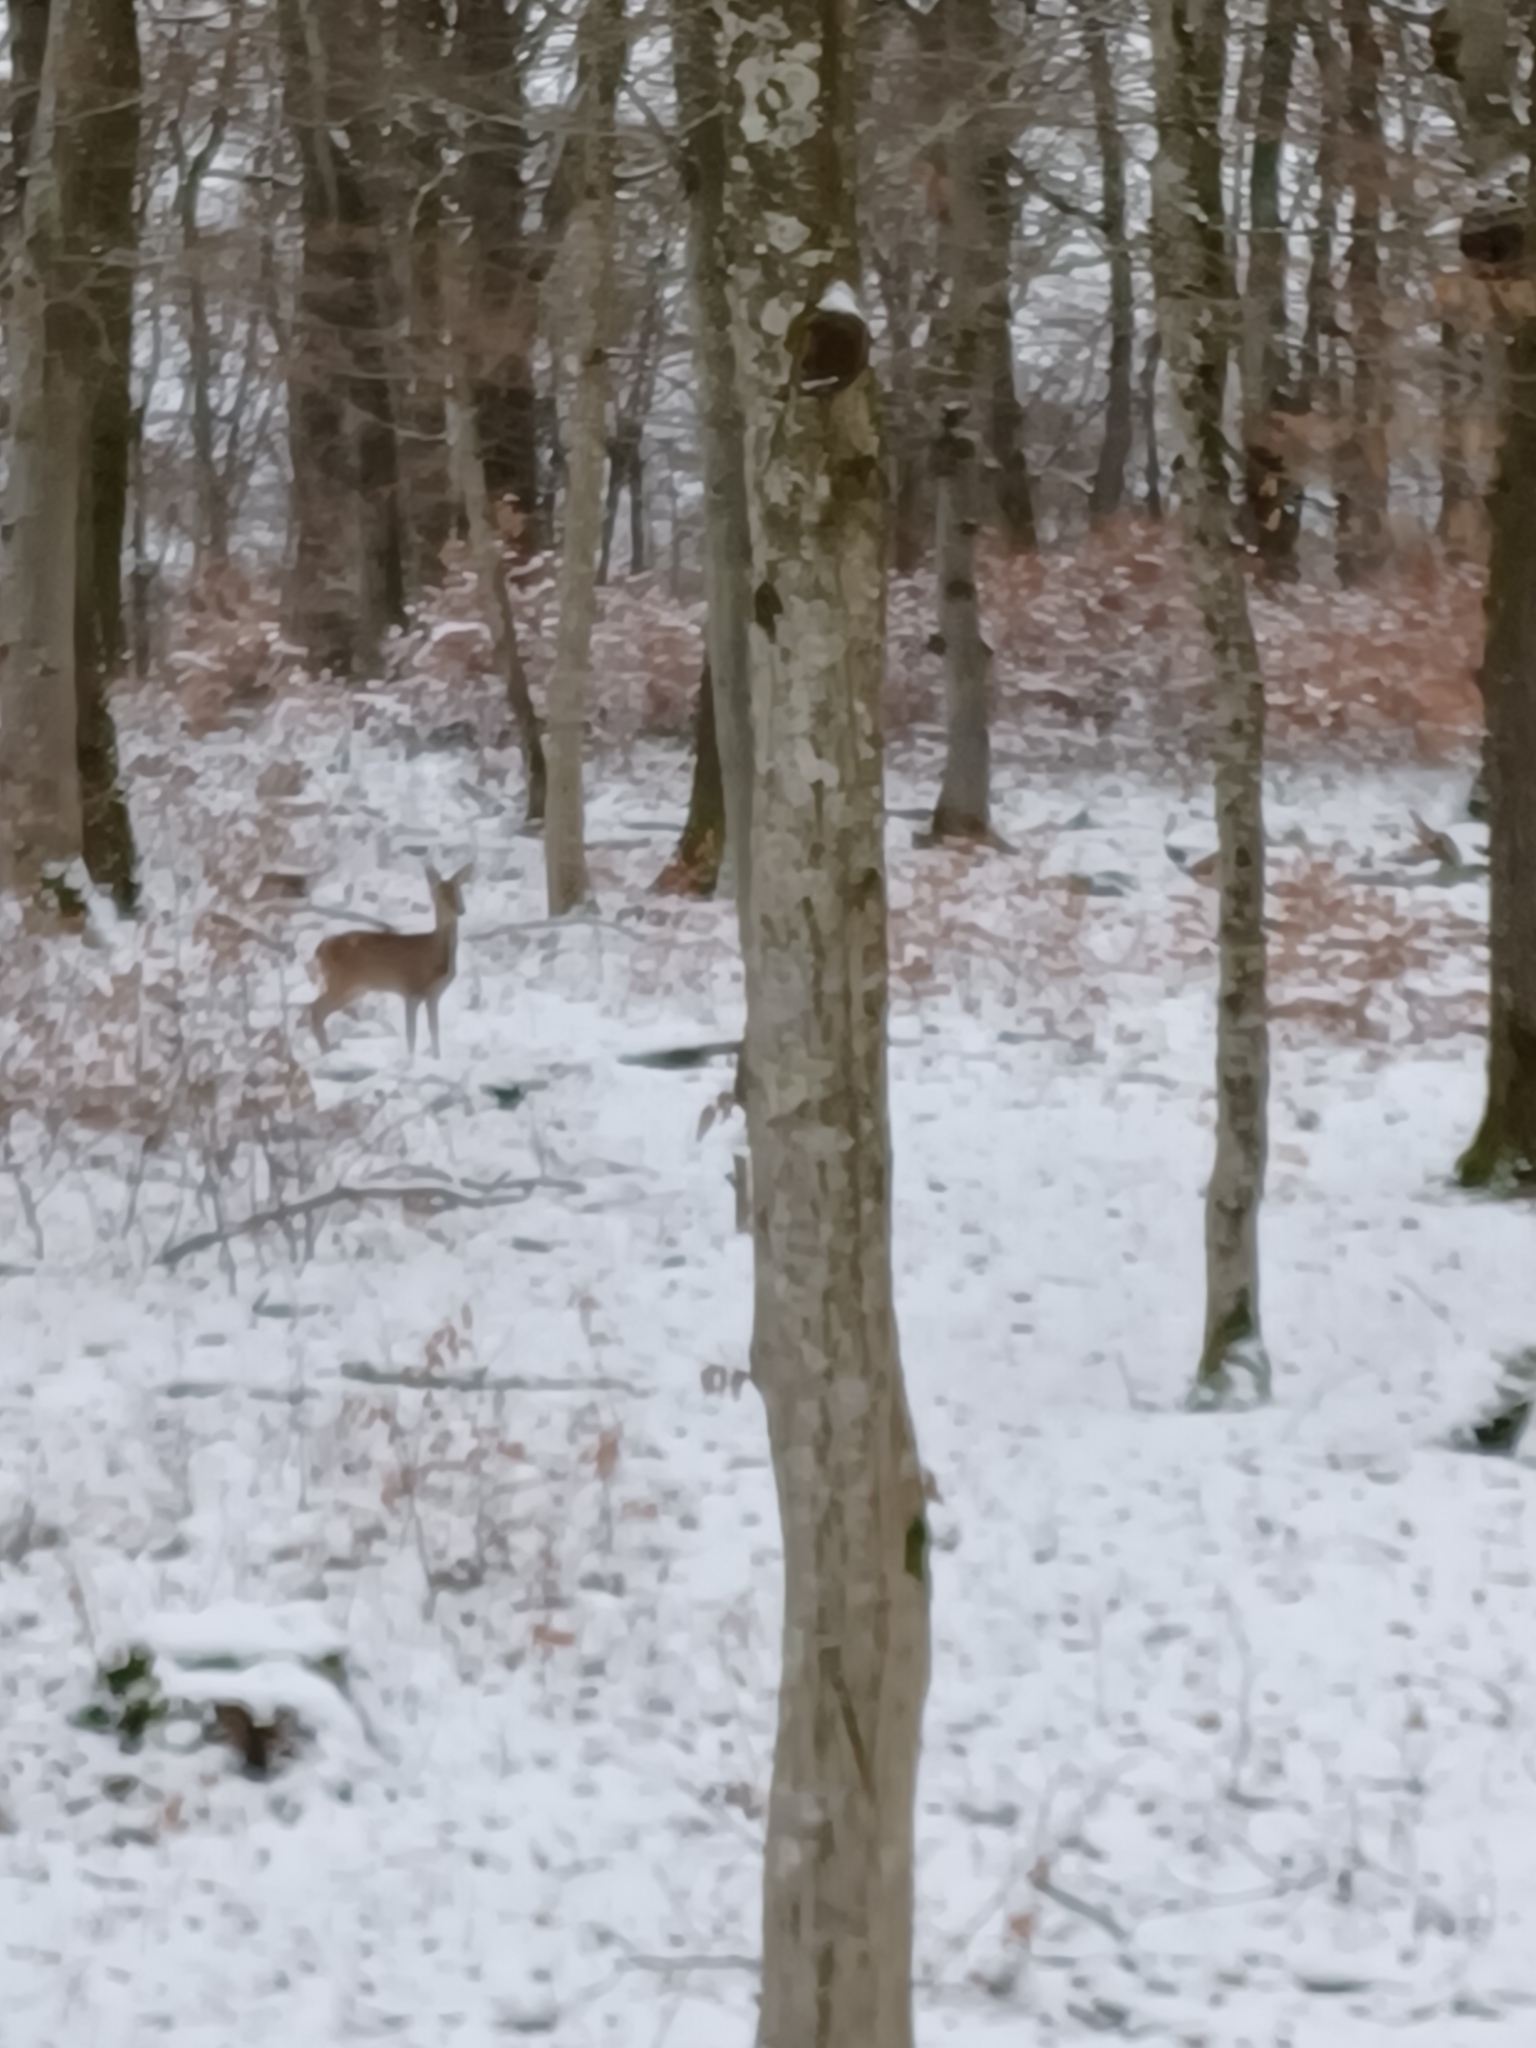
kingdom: Animalia
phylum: Chordata
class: Mammalia
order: Artiodactyla
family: Cervidae
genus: Capreolus
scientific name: Capreolus capreolus
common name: Western roe deer
